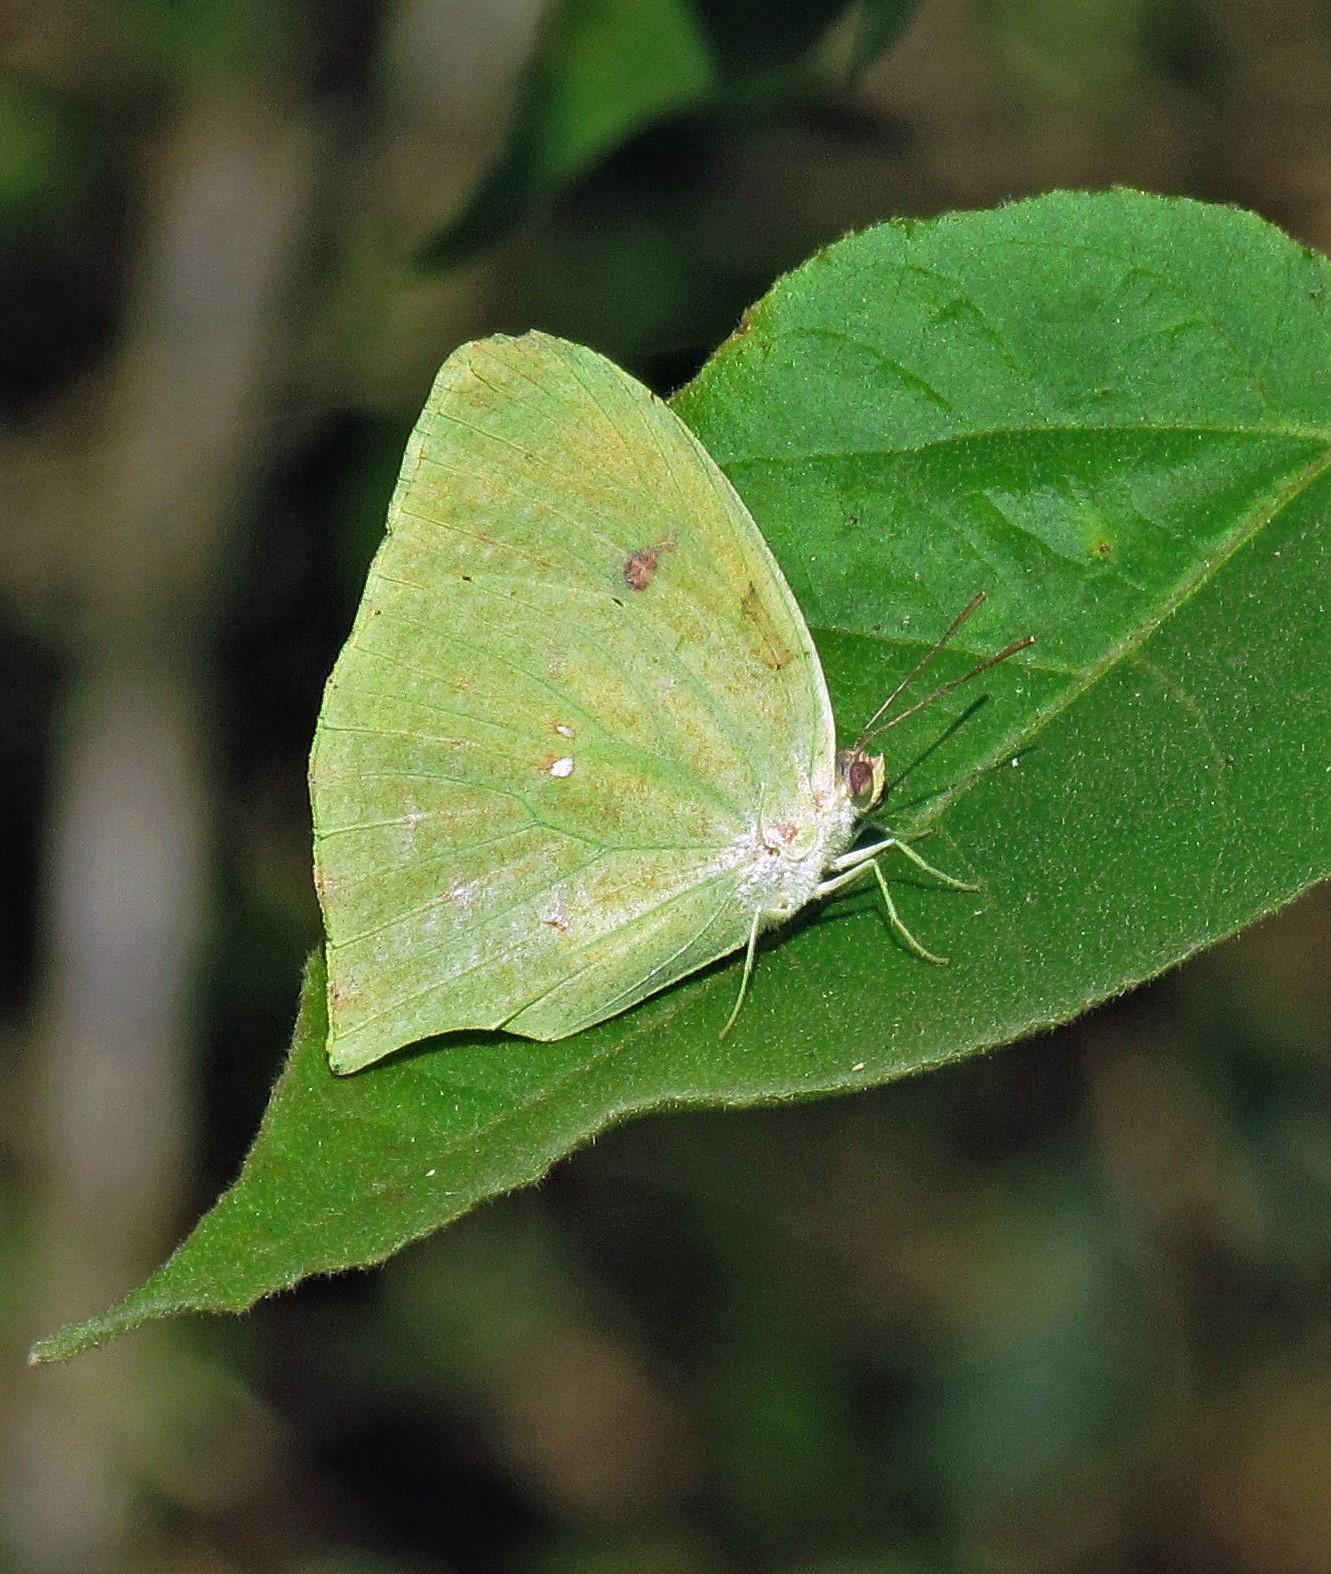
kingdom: Animalia
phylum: Arthropoda
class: Insecta
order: Lepidoptera
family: Pieridae
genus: Phoebis
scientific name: Phoebis neocypris
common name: Tailed sulphur
